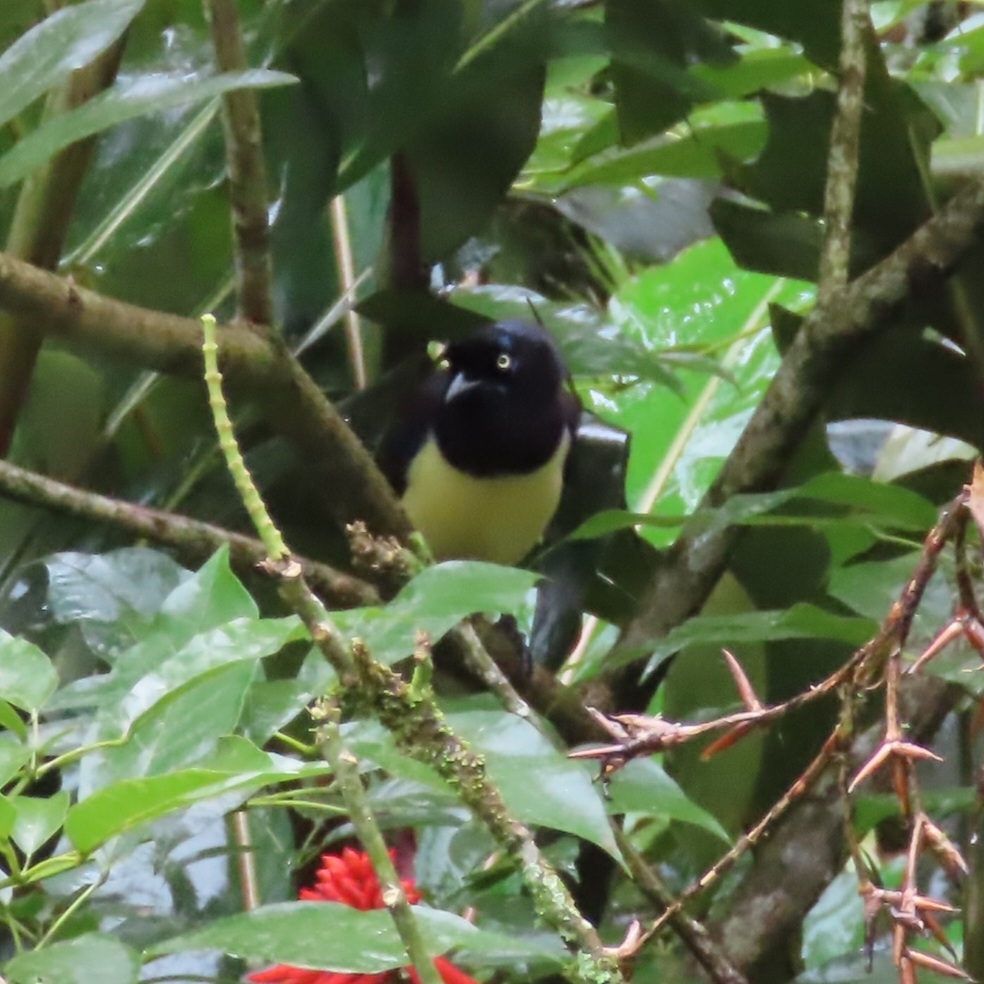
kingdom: Animalia
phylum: Chordata
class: Aves
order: Passeriformes
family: Corvidae
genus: Cyanocorax
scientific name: Cyanocorax affinis
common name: Black-chested jay
